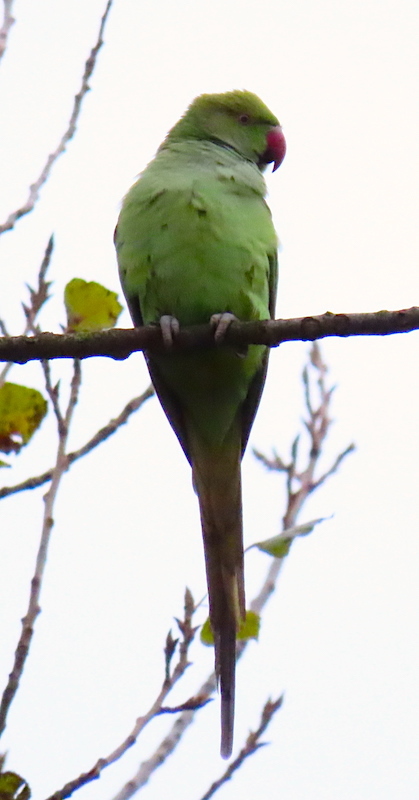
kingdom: Animalia
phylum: Chordata
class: Aves
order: Psittaciformes
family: Psittacidae
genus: Psittacula
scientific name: Psittacula krameri
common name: Rose-ringed parakeet
